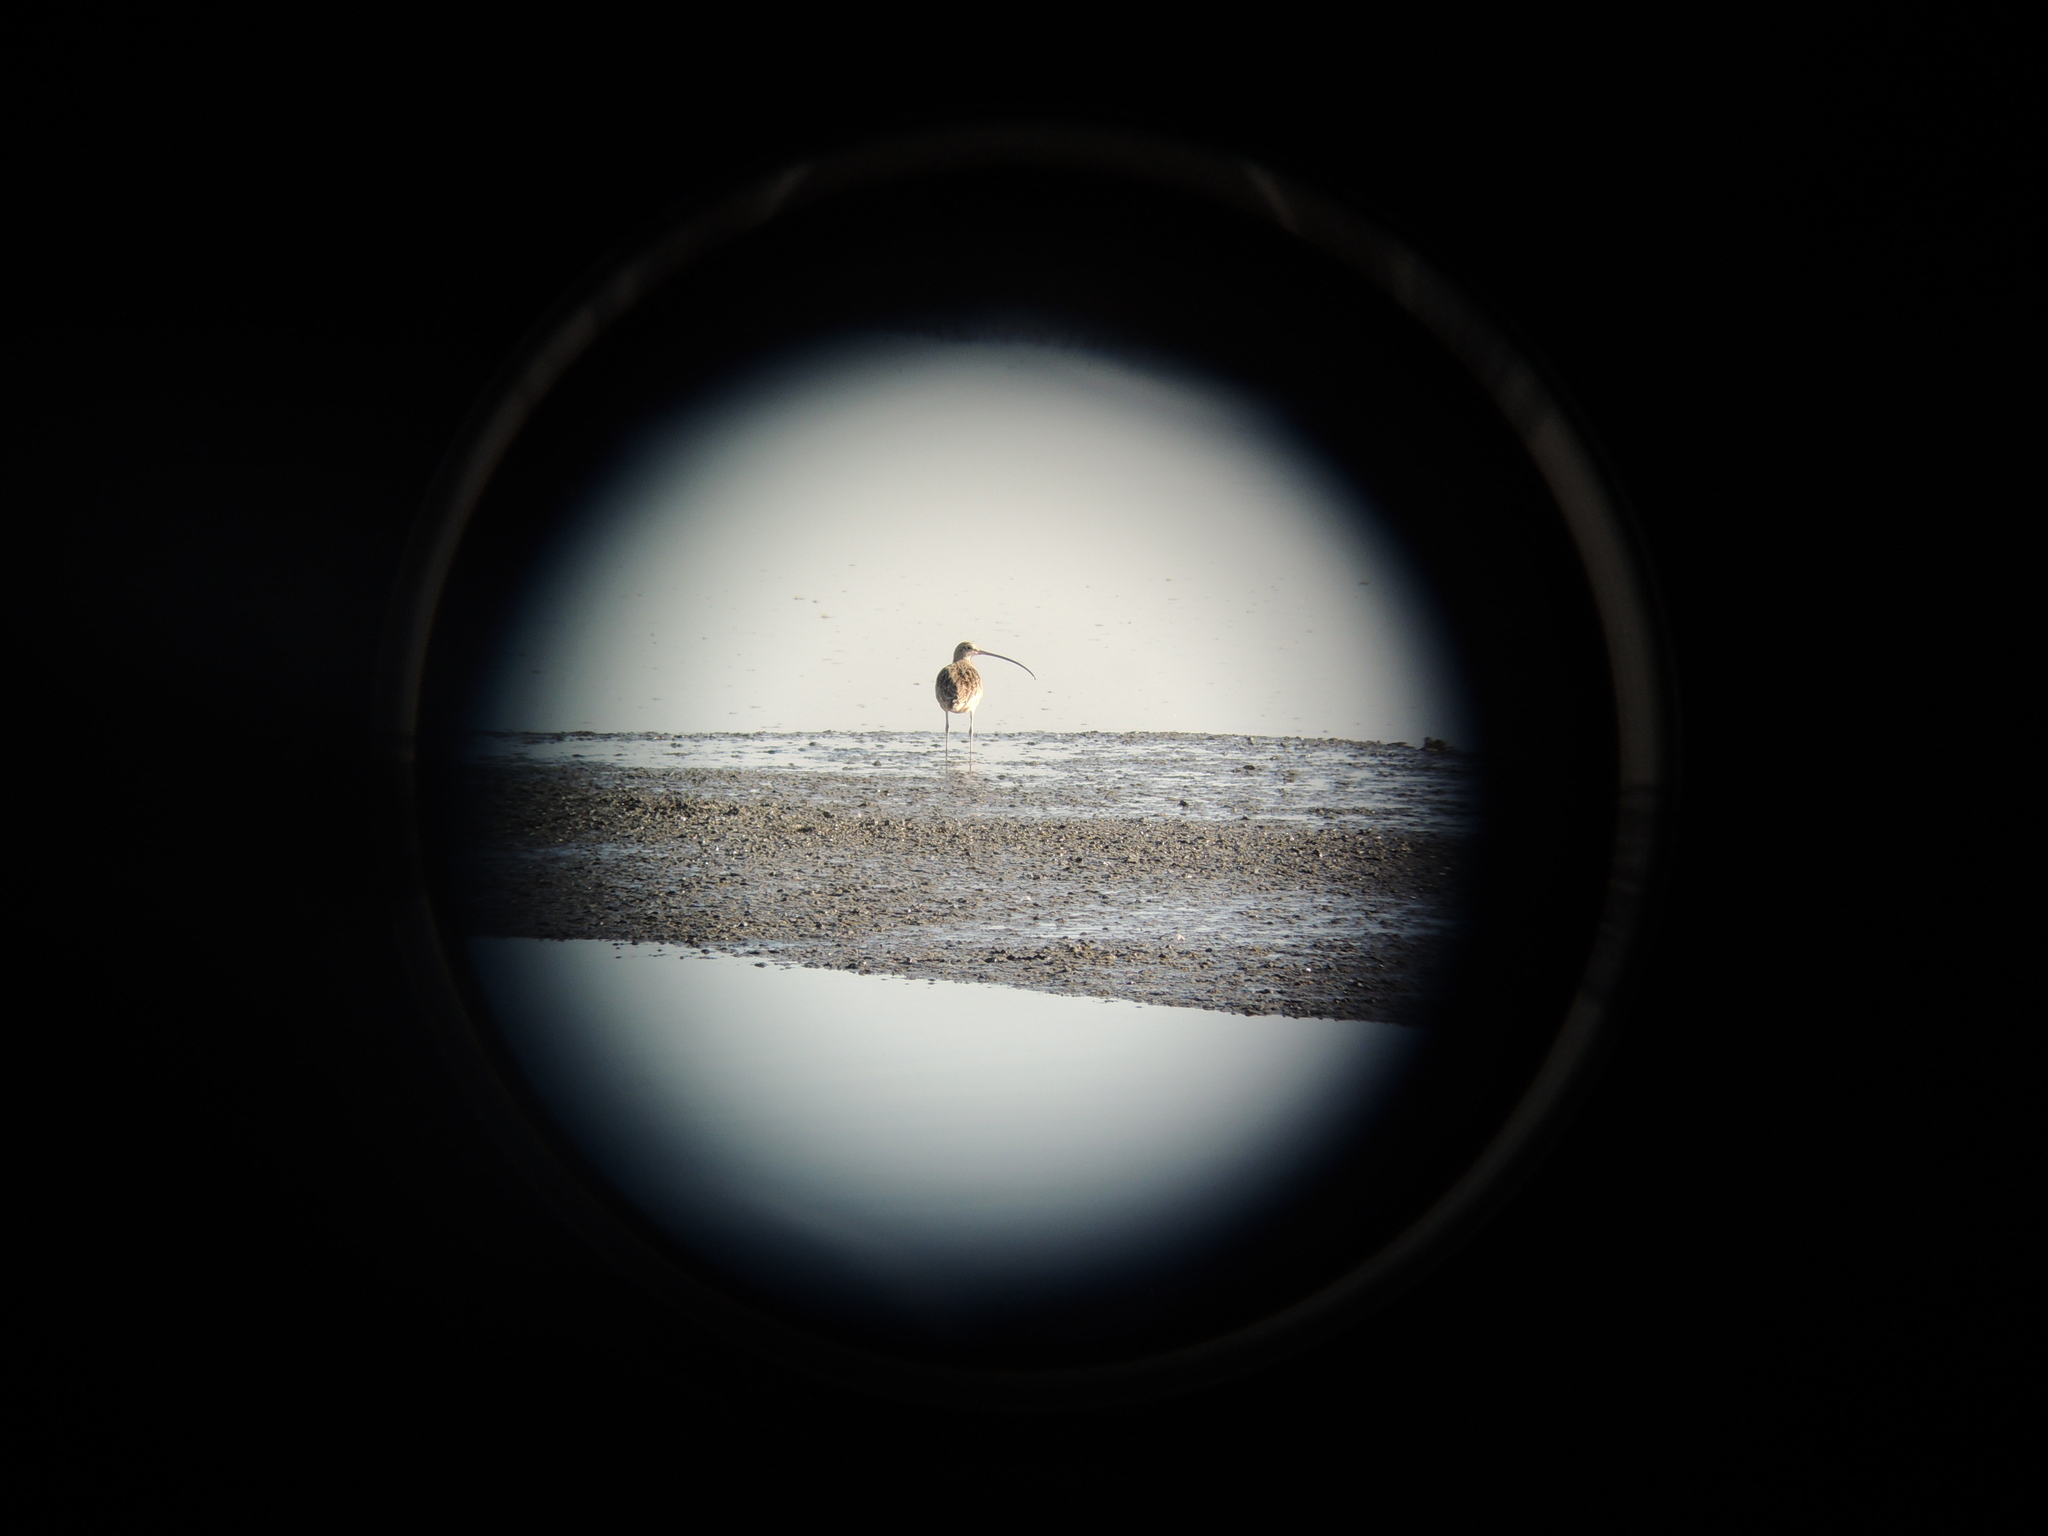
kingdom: Animalia
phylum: Chordata
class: Aves
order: Charadriiformes
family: Scolopacidae
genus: Numenius
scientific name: Numenius americanus
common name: Long-billed curlew
